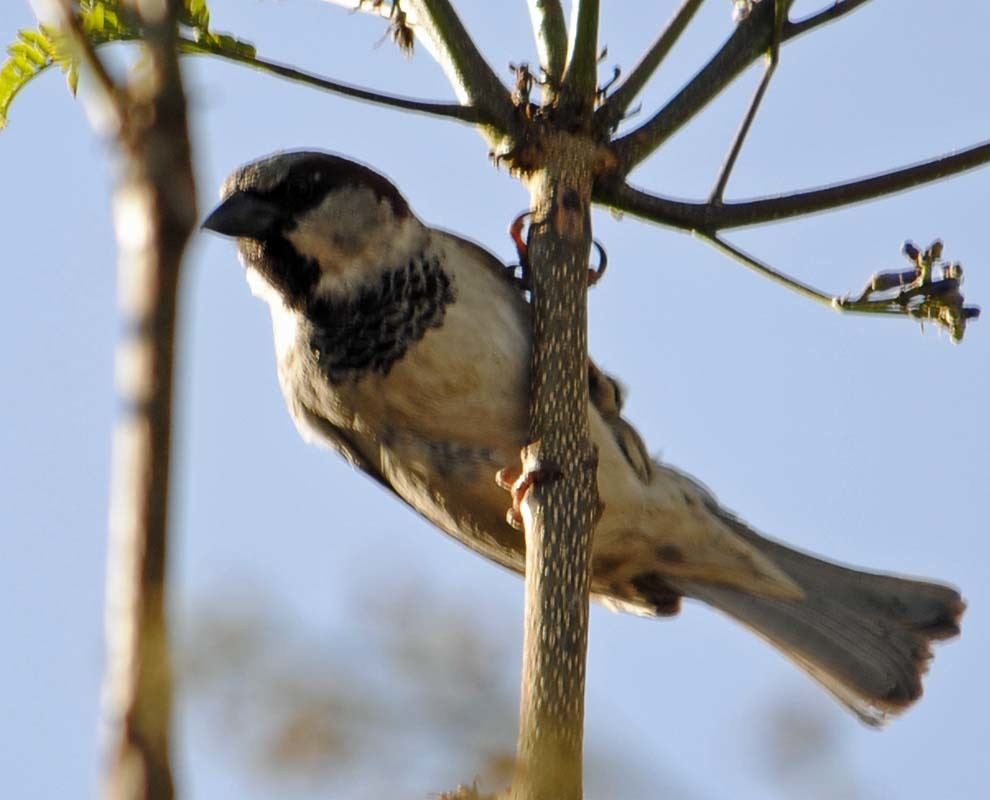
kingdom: Animalia
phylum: Chordata
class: Aves
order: Passeriformes
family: Passeridae
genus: Passer
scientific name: Passer domesticus
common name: House sparrow
